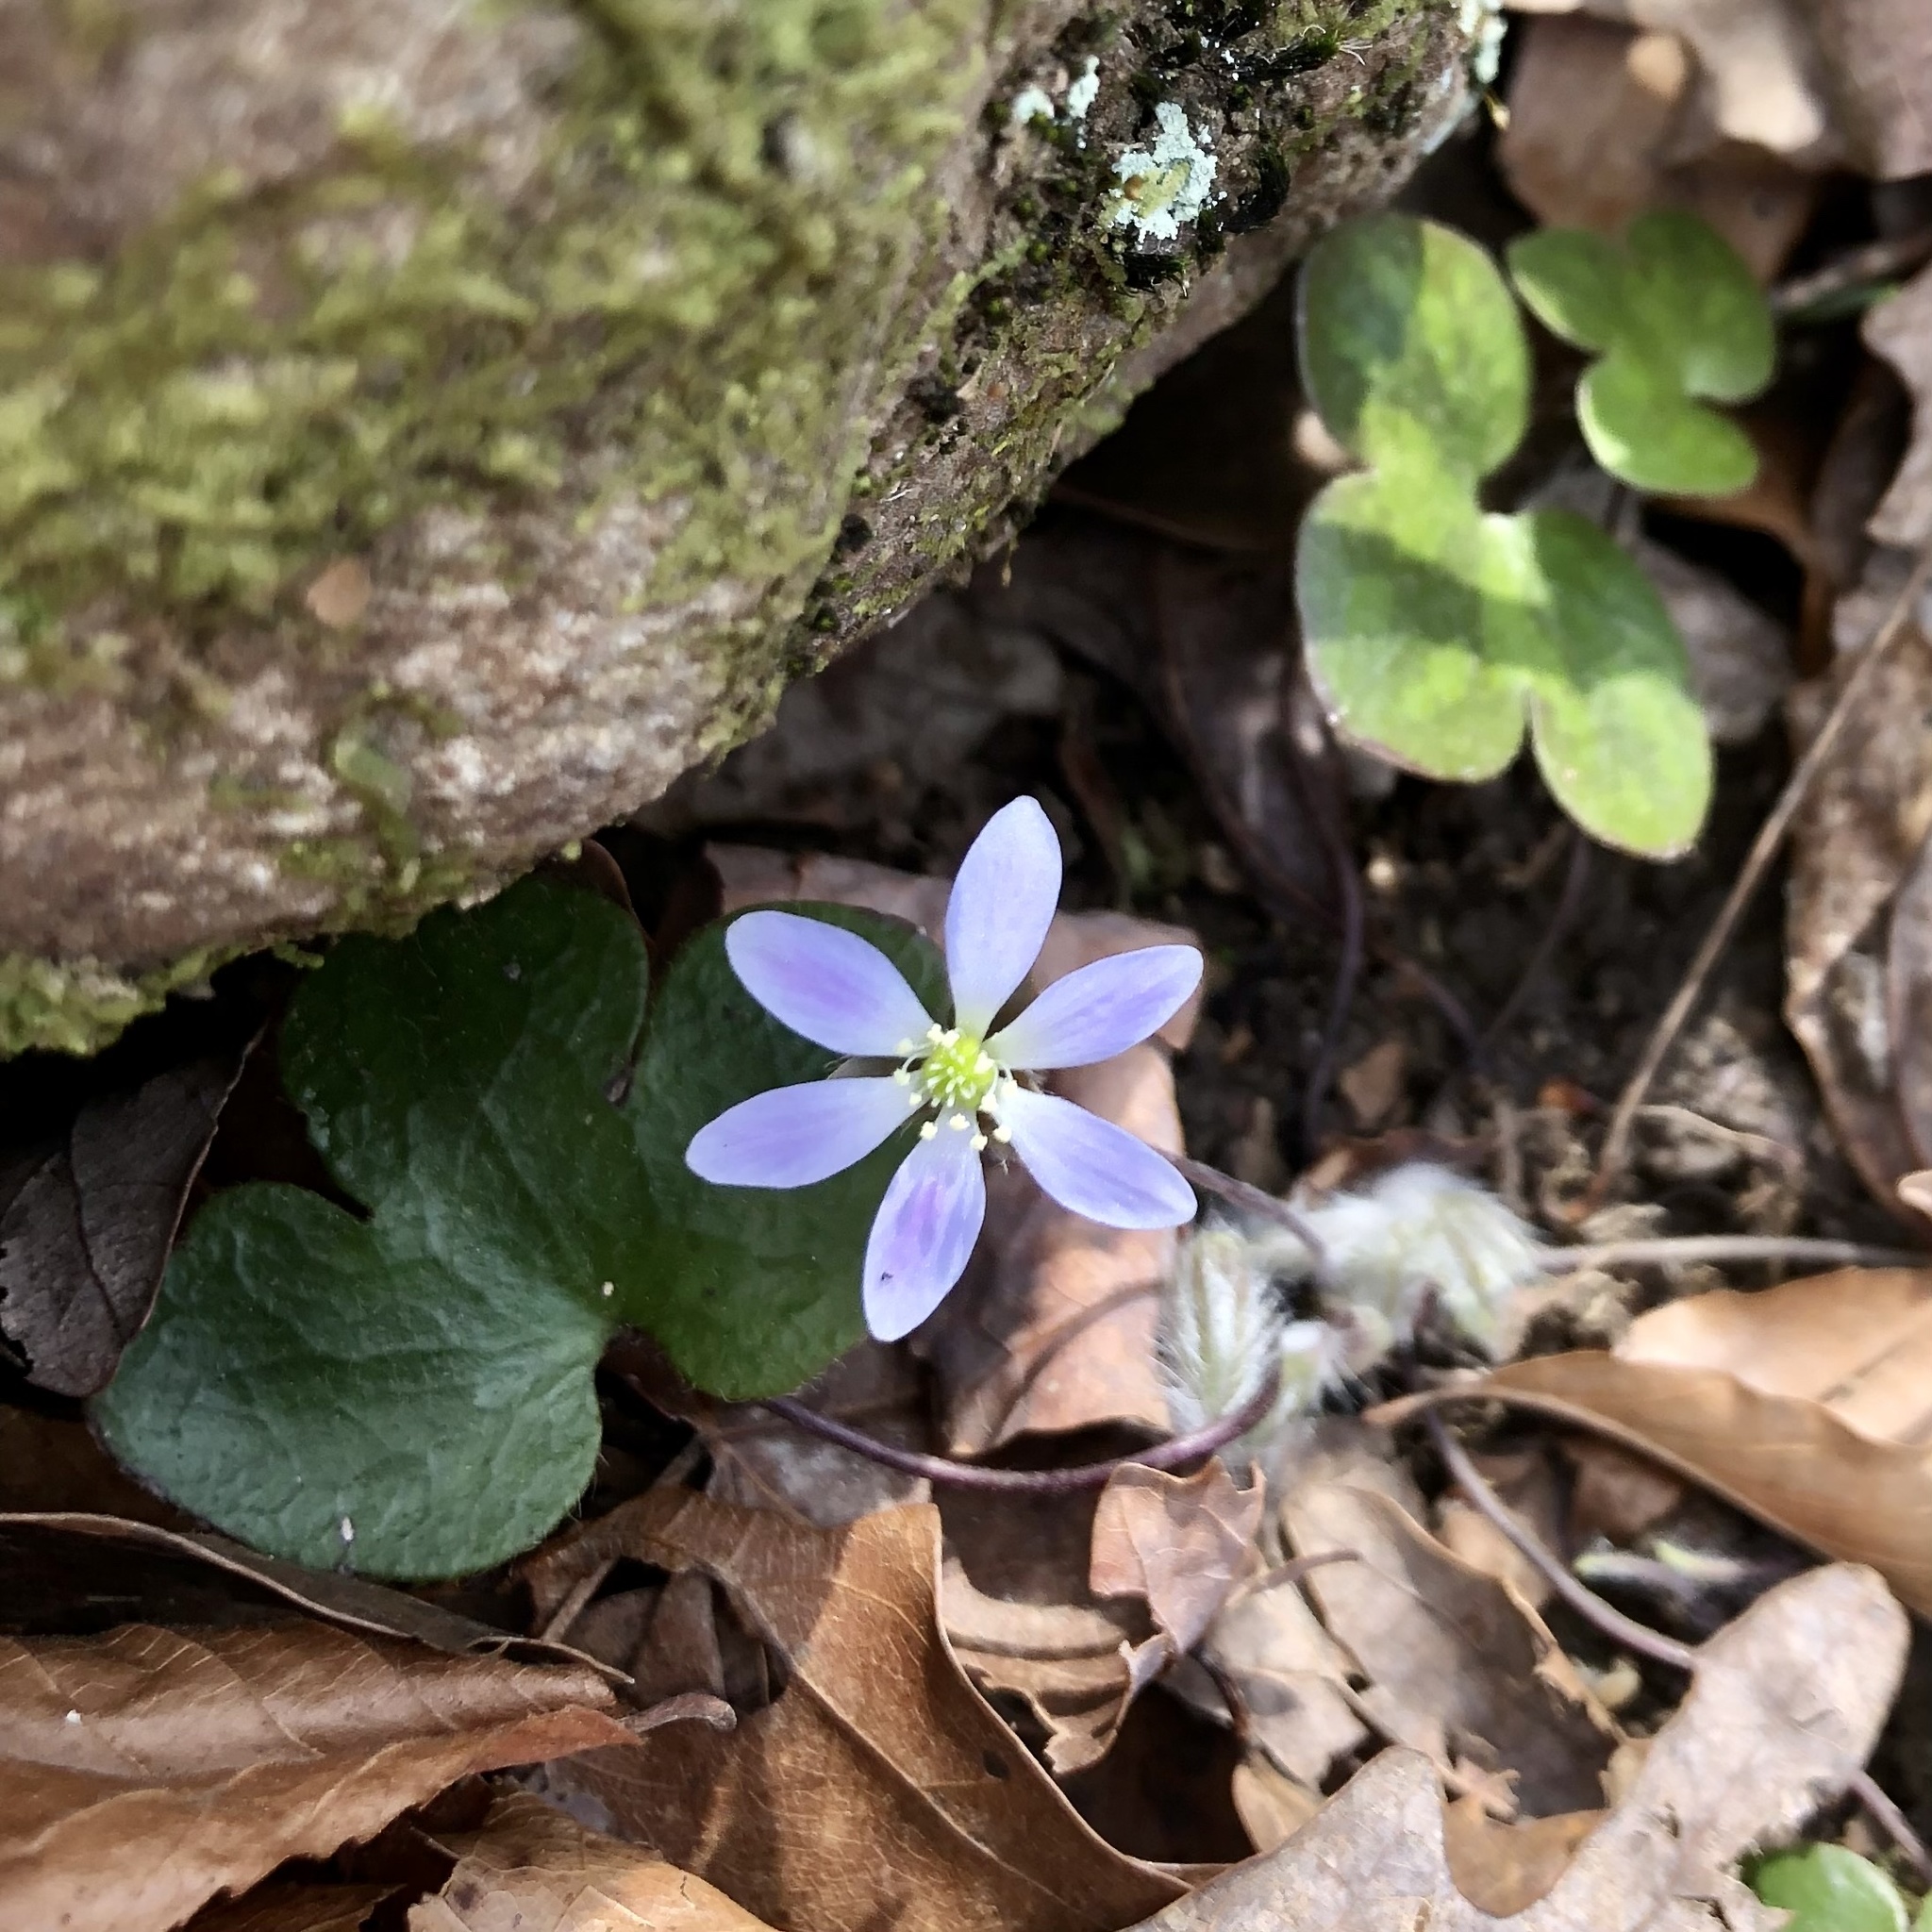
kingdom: Plantae
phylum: Tracheophyta
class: Magnoliopsida
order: Ranunculales
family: Ranunculaceae
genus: Hepatica
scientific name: Hepatica americana
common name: American hepatica
